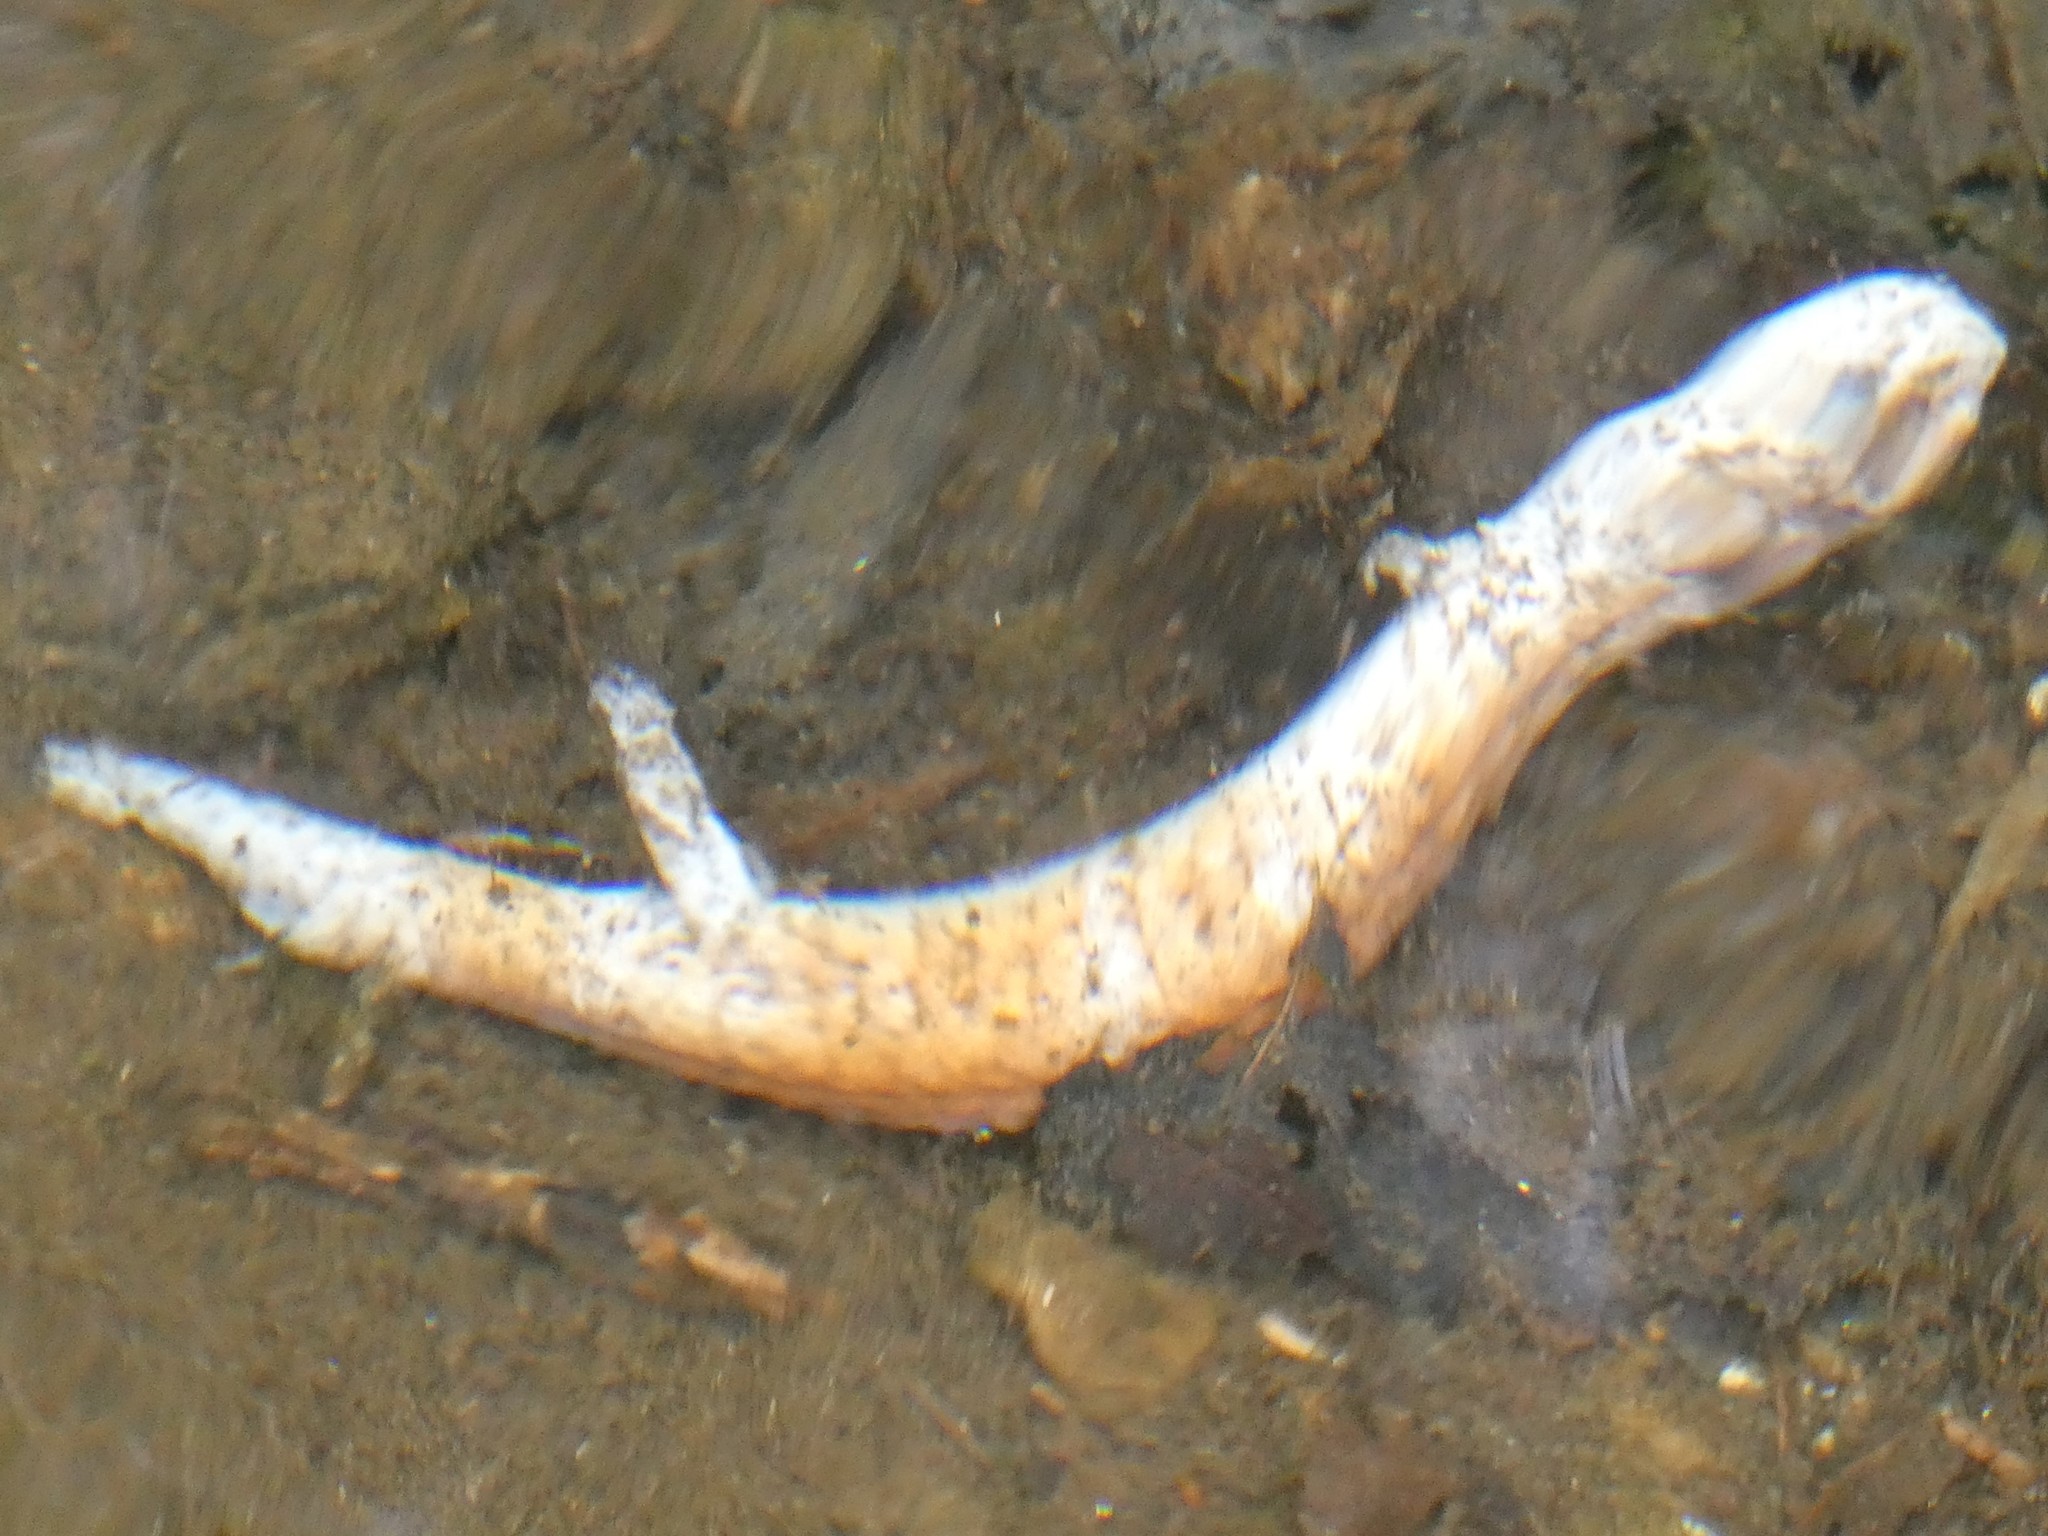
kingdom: Animalia
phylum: Chordata
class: Amphibia
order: Caudata
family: Plethodontidae
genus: Gyrinophilus
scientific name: Gyrinophilus porphyriticus
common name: Spring salamander
